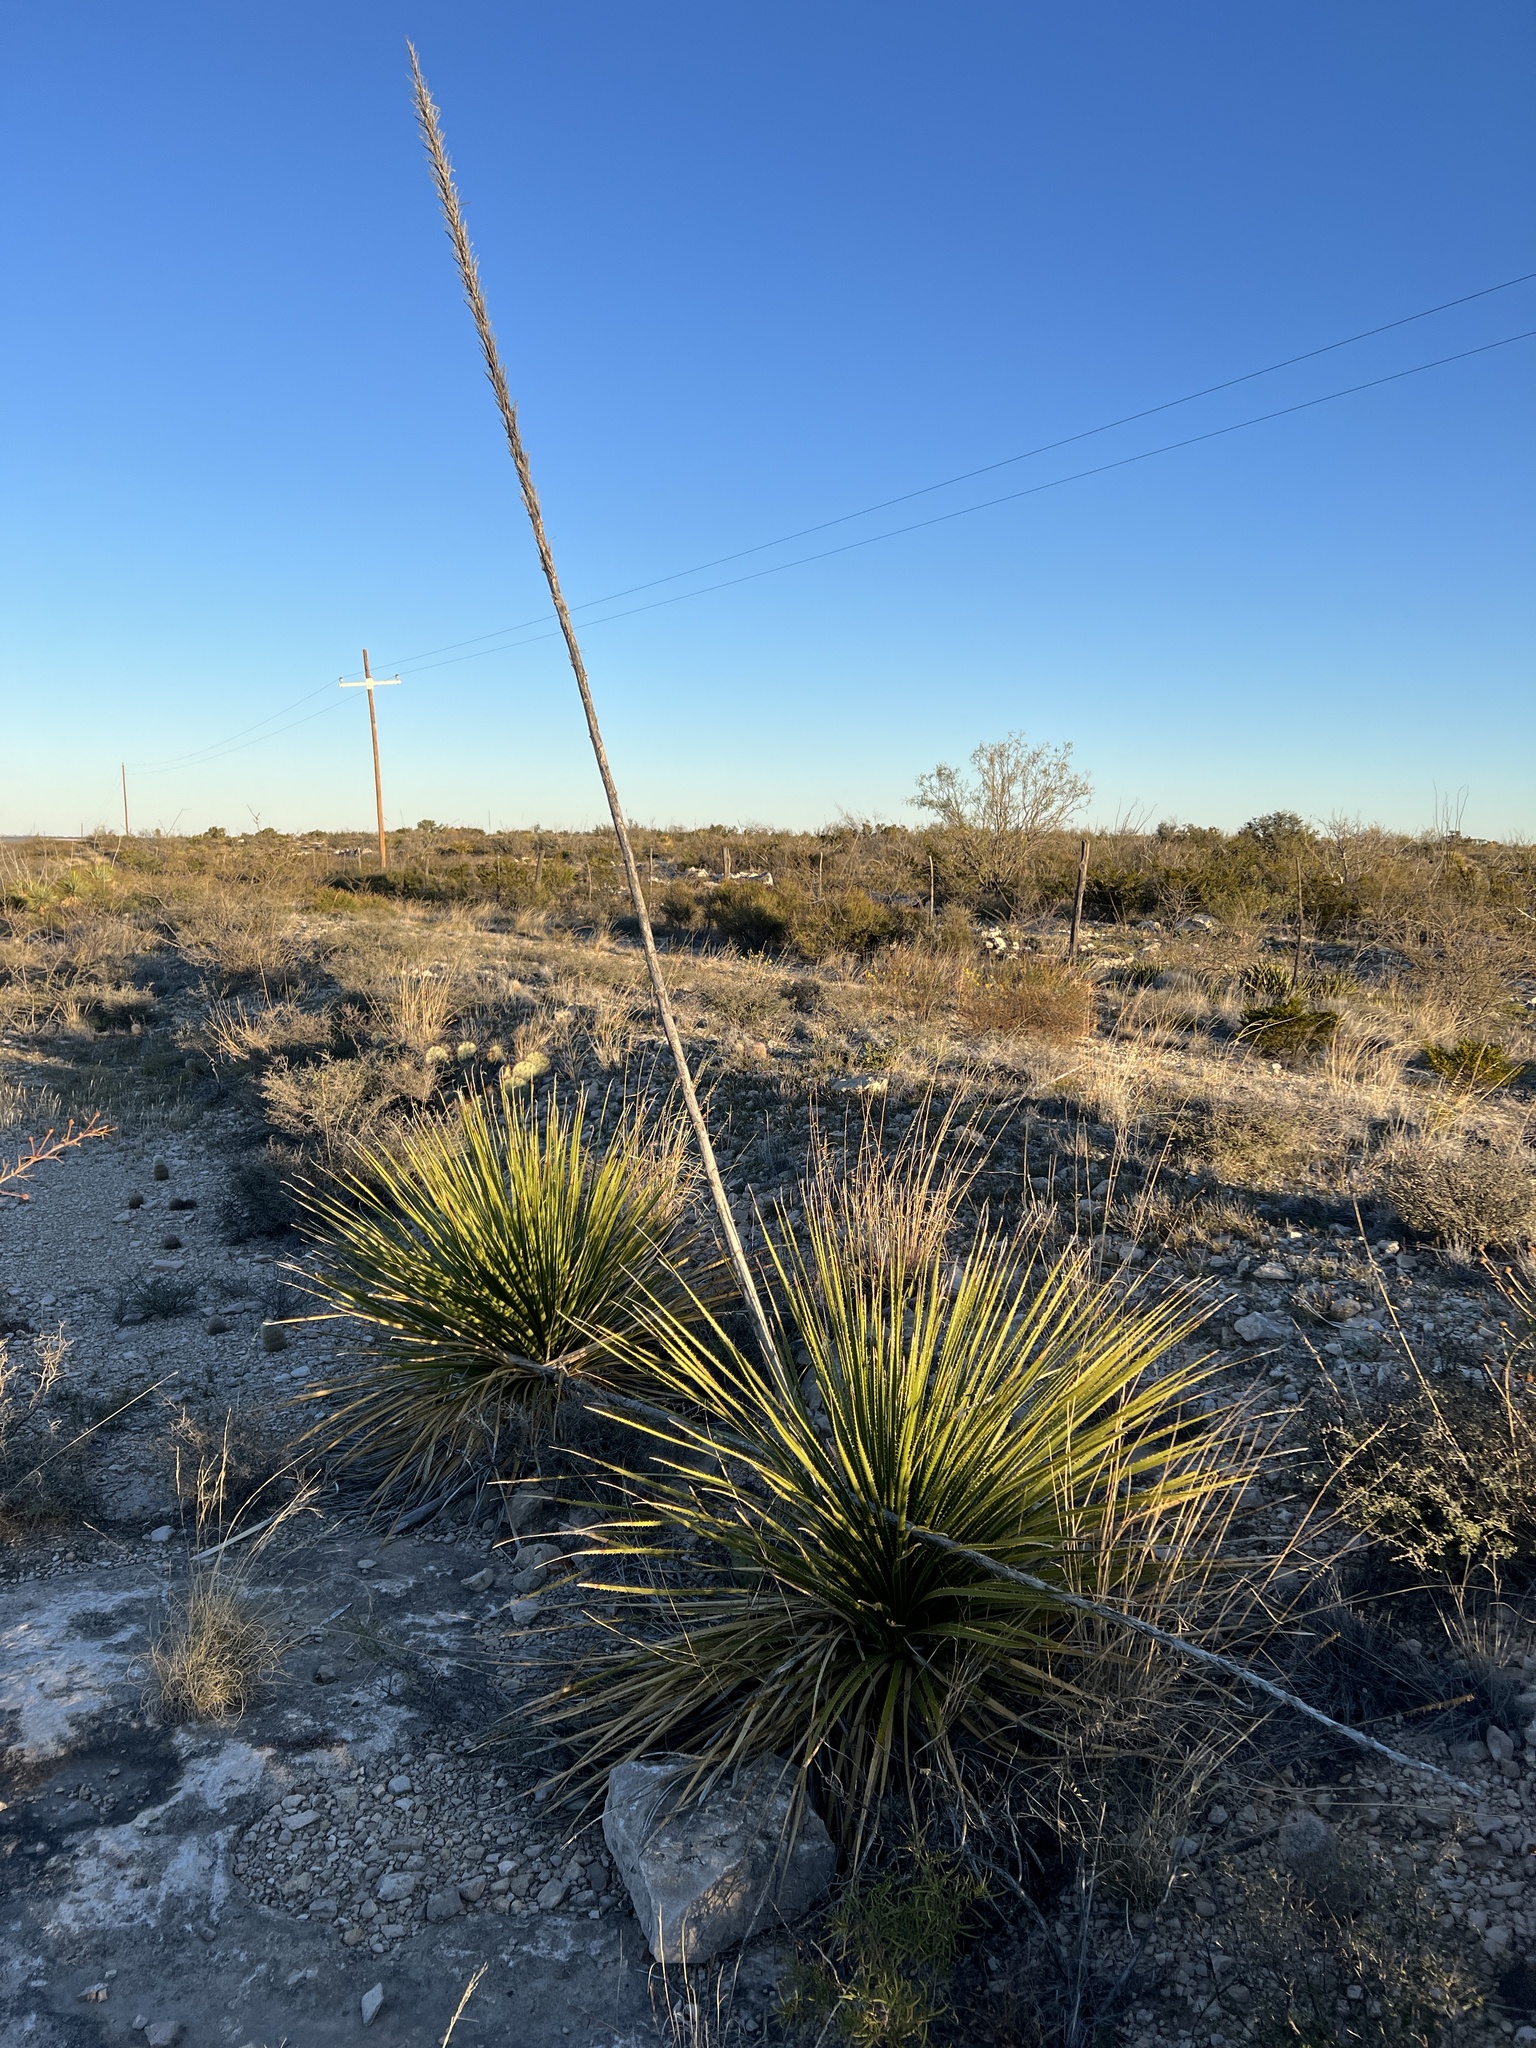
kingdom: Plantae
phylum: Tracheophyta
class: Liliopsida
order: Asparagales
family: Asparagaceae
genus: Dasylirion
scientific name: Dasylirion texanum
